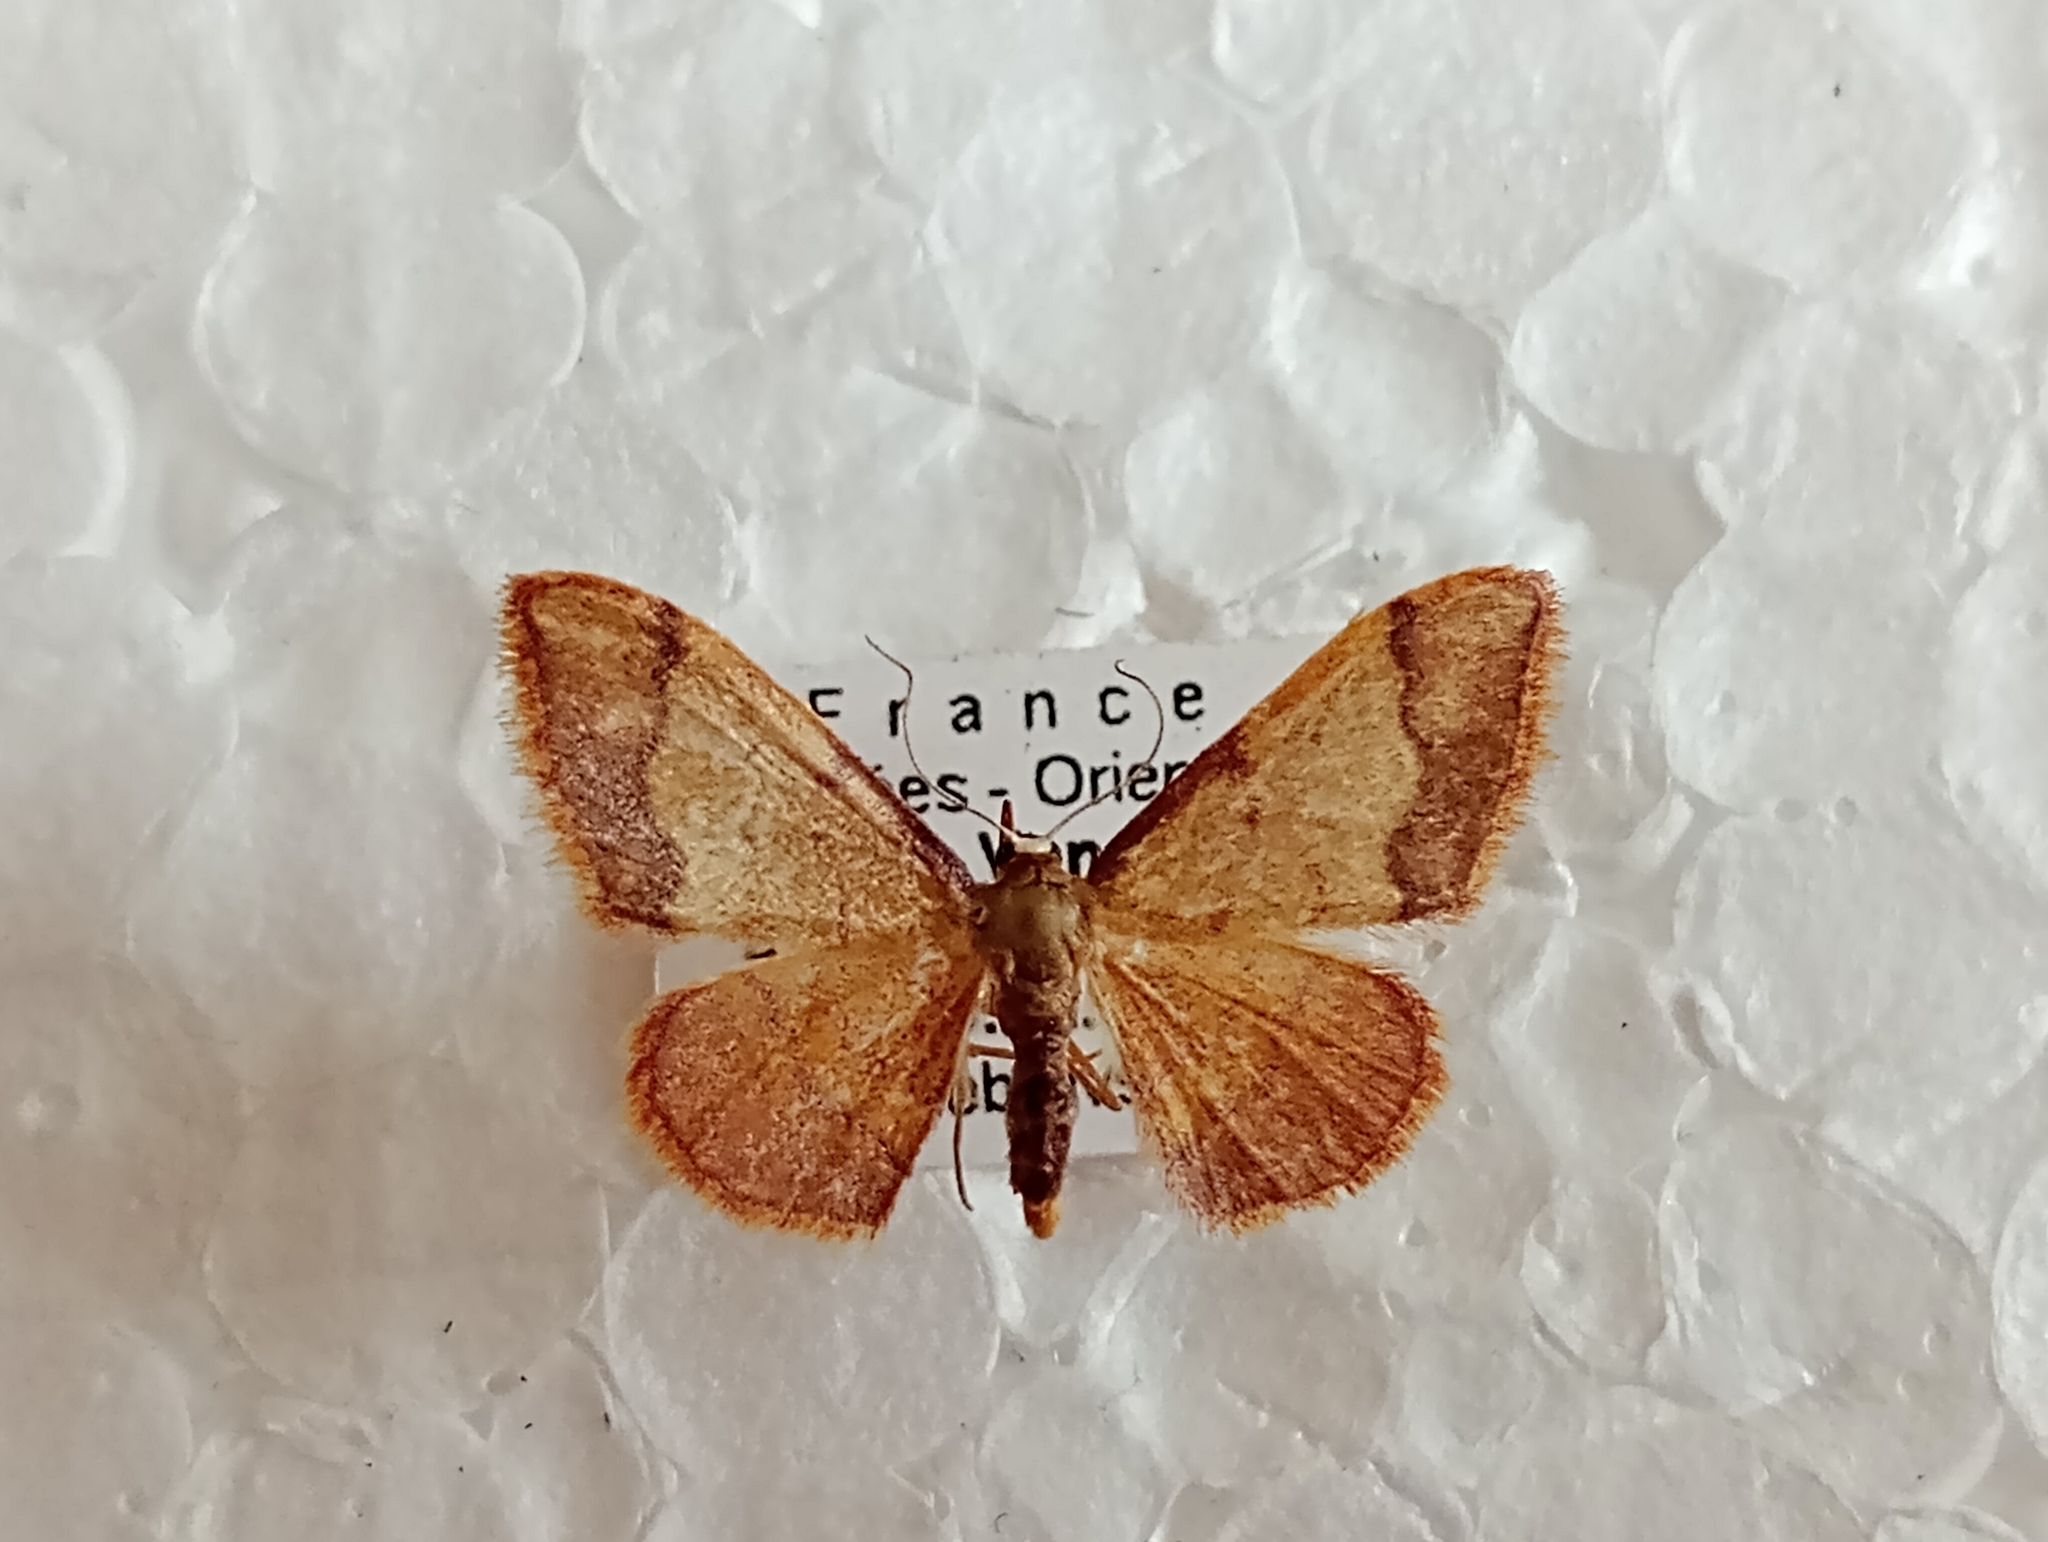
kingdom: Animalia
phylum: Arthropoda
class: Insecta
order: Lepidoptera
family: Geometridae
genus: Idaea
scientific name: Idaea ostrinaria
